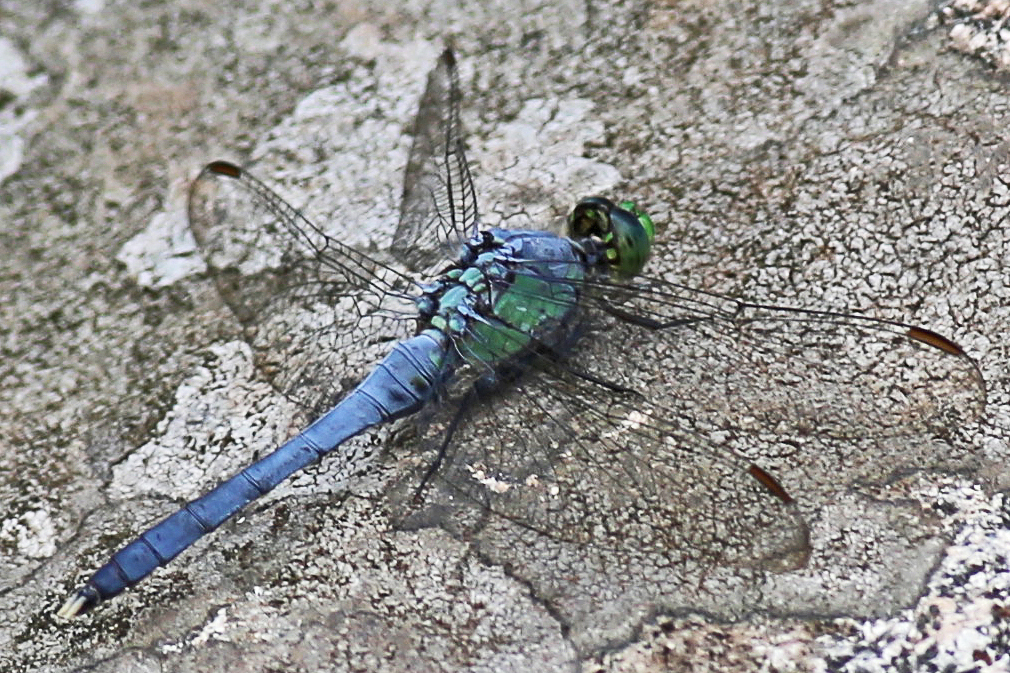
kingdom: Animalia
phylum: Arthropoda
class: Insecta
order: Odonata
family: Libellulidae
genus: Erythemis
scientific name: Erythemis simplicicollis
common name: Eastern pondhawk
